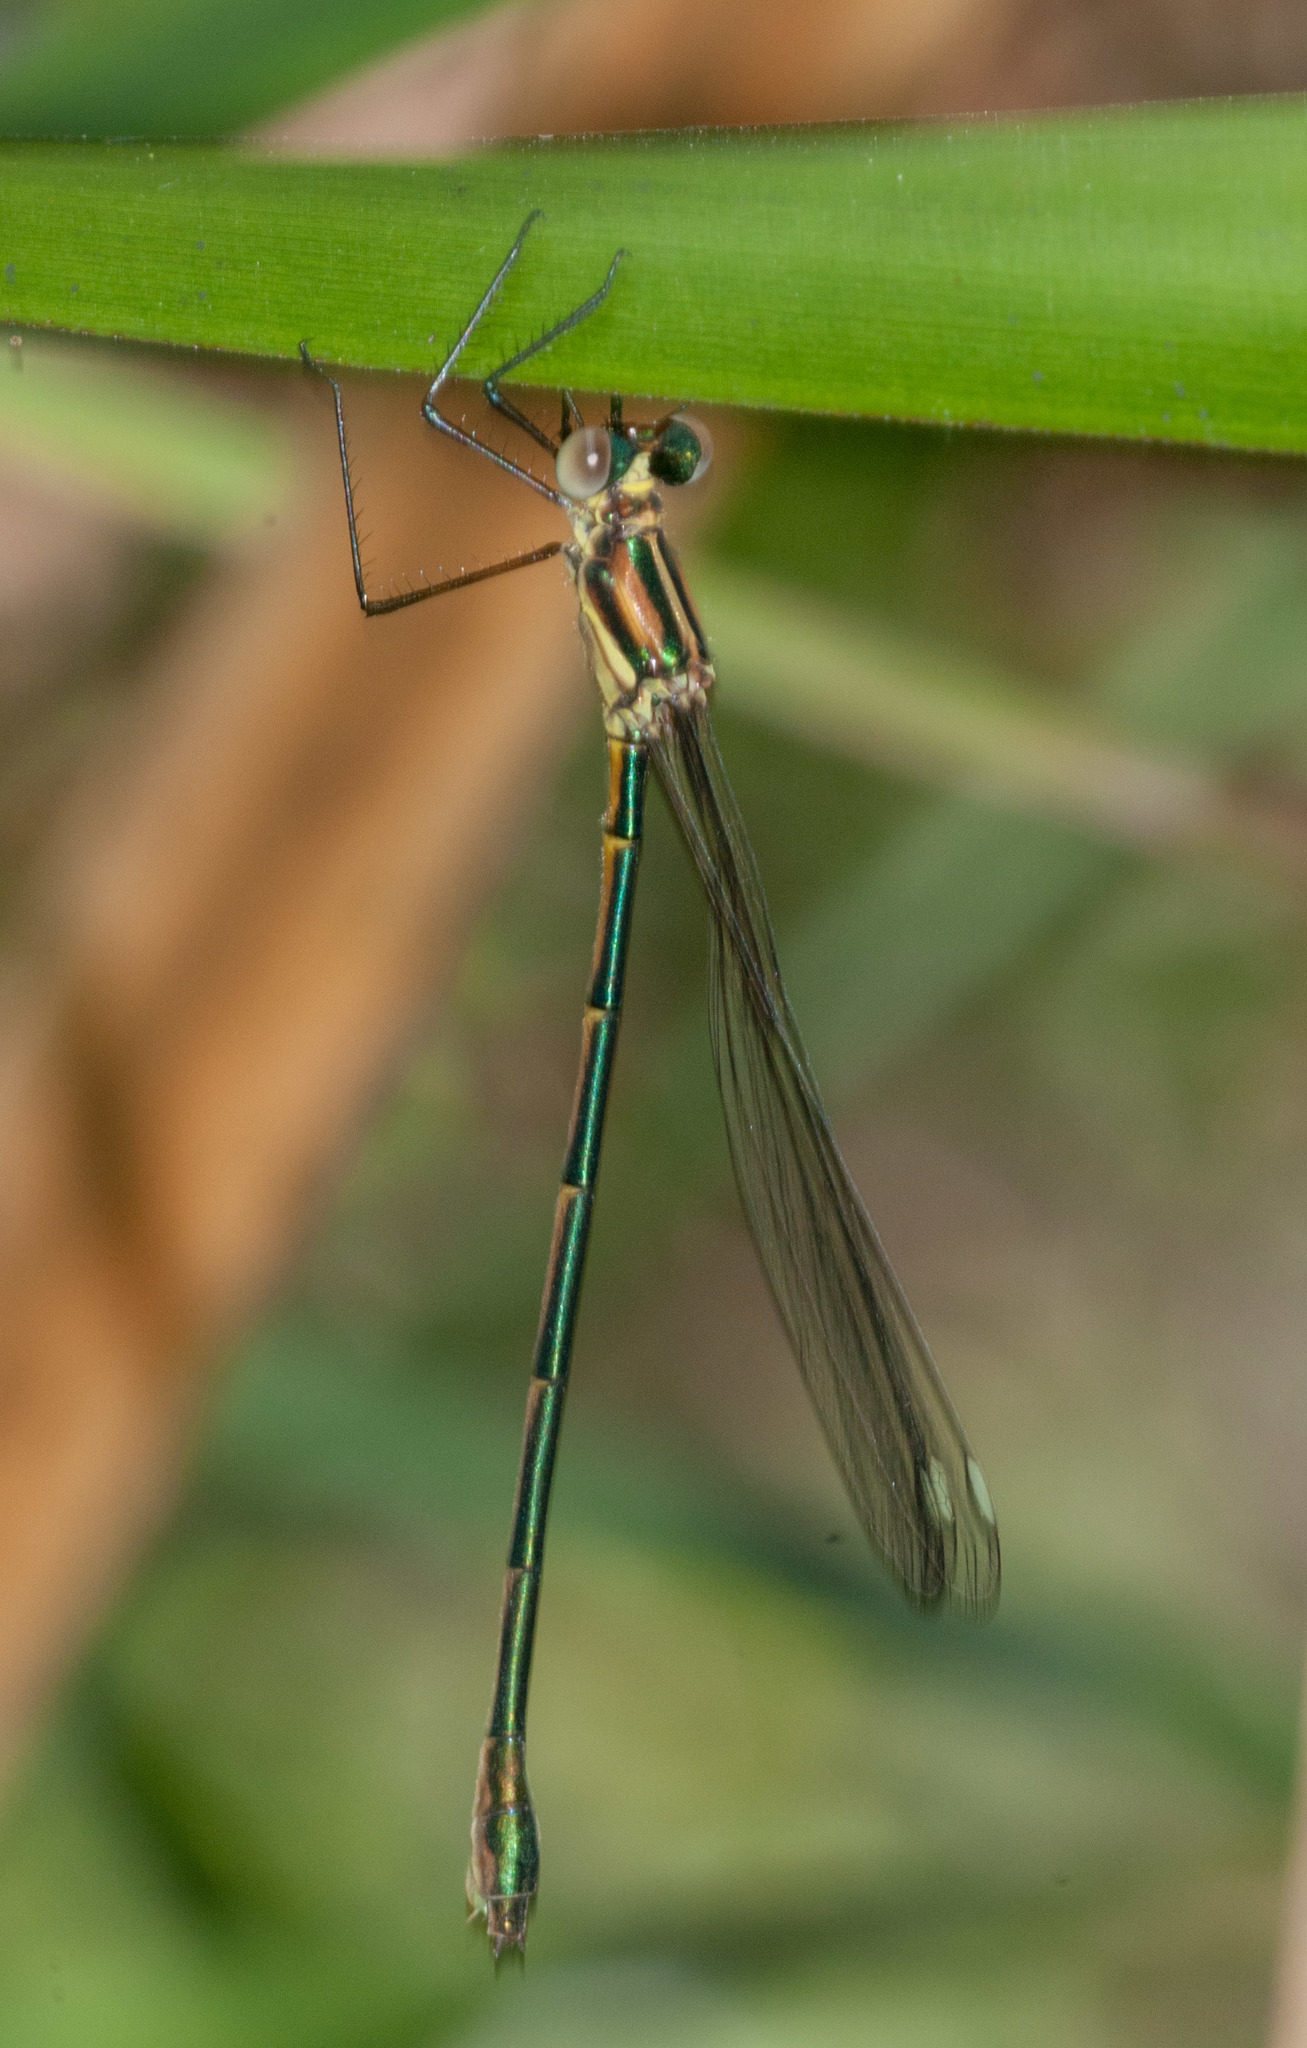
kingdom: Animalia
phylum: Arthropoda
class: Insecta
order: Odonata
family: Synlestidae
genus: Synlestes
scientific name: Synlestes weyersii
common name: Bronze needle
